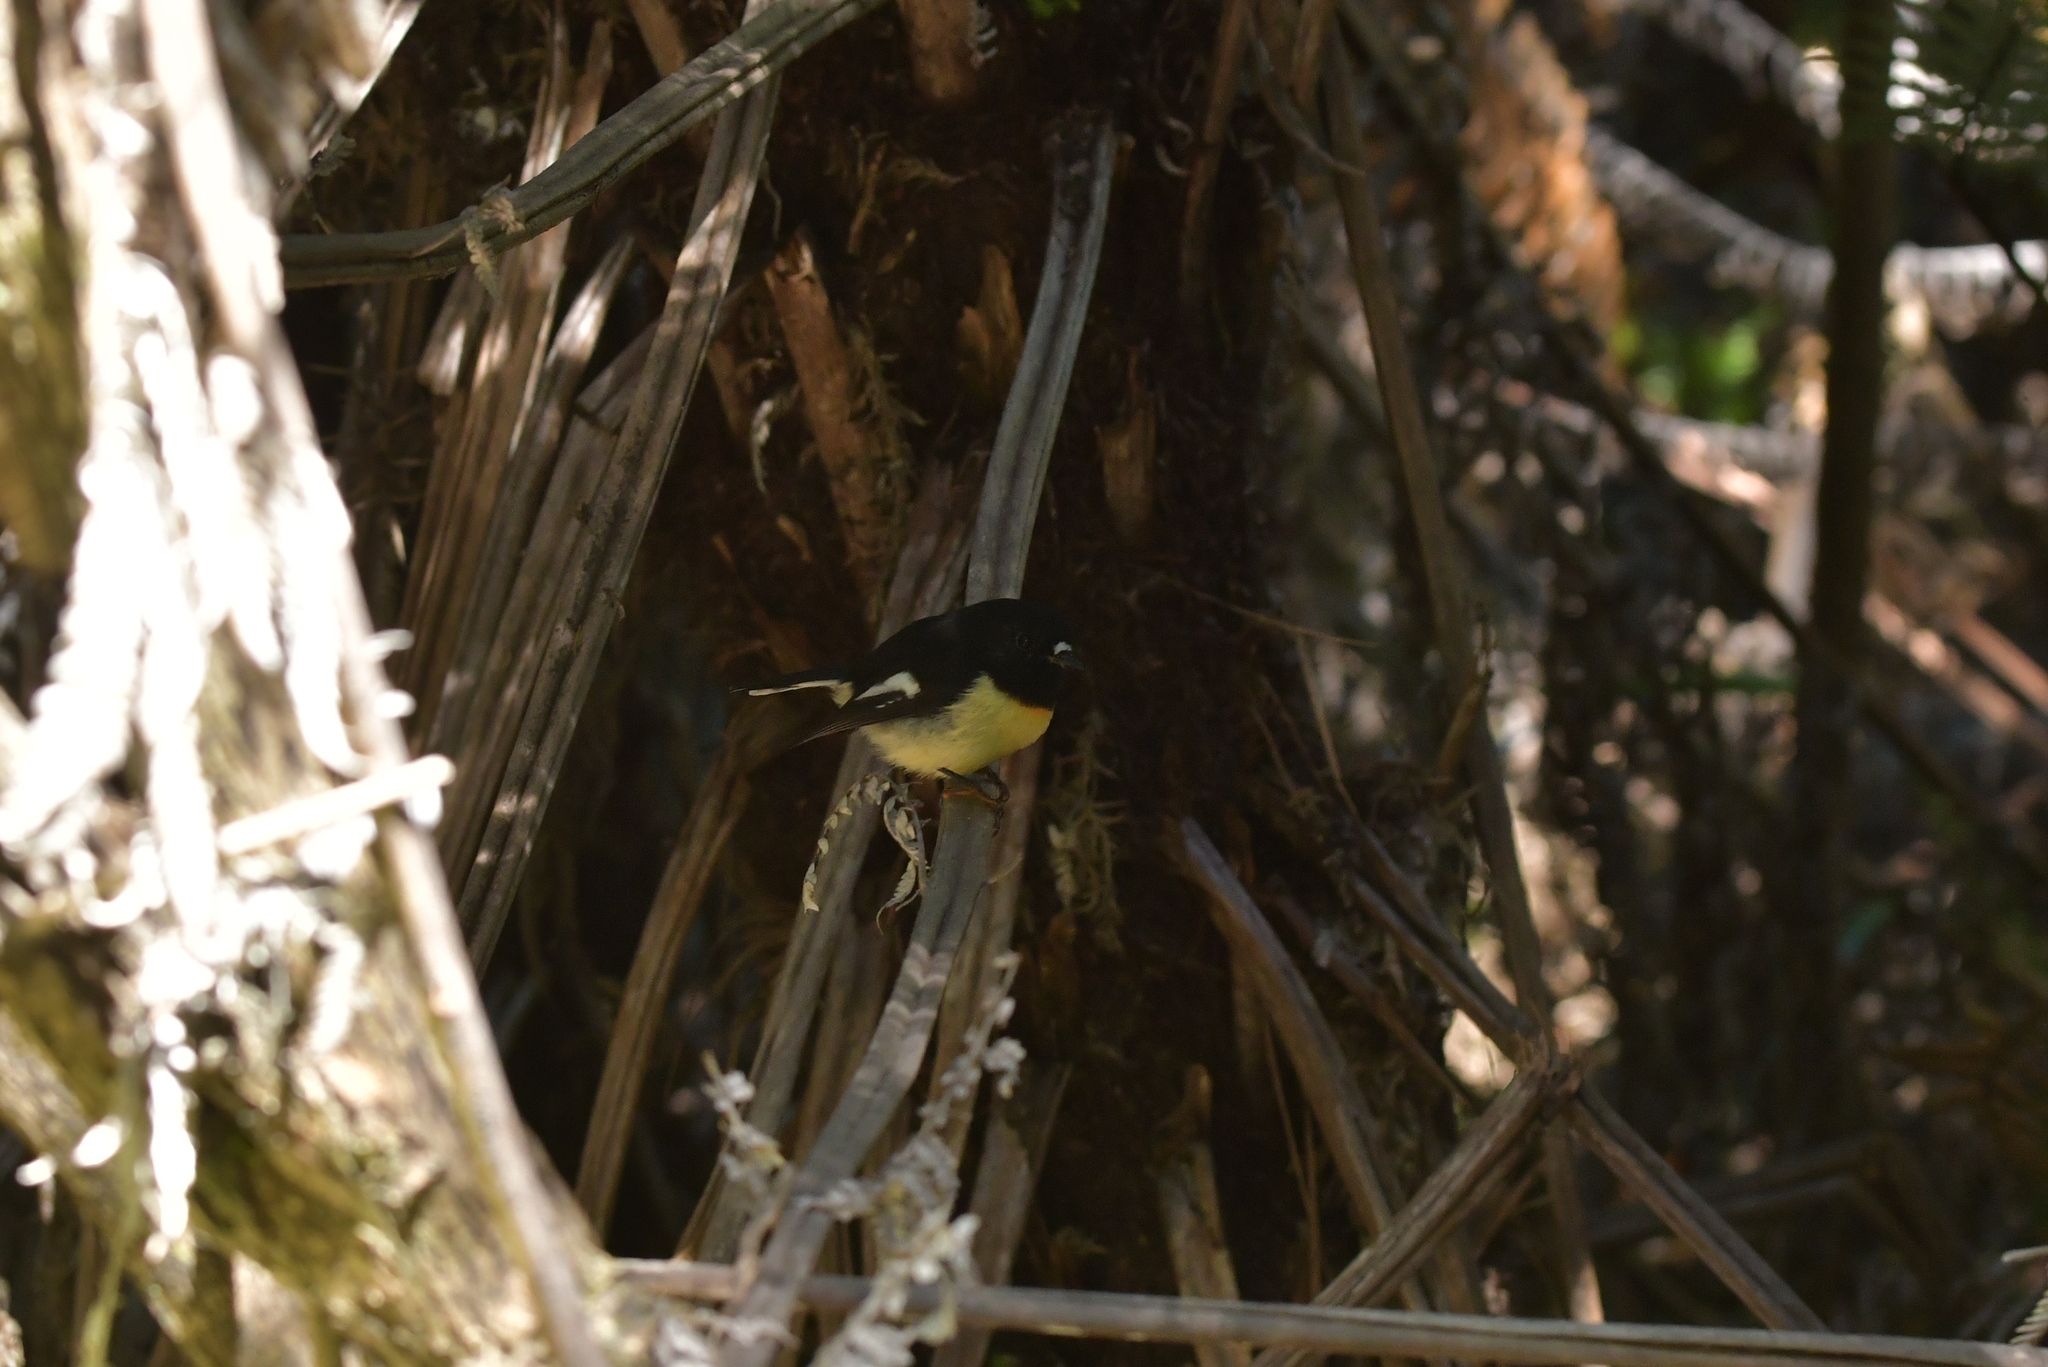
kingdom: Animalia
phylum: Chordata
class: Aves
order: Passeriformes
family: Petroicidae
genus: Petroica
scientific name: Petroica macrocephala
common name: Tomtit
